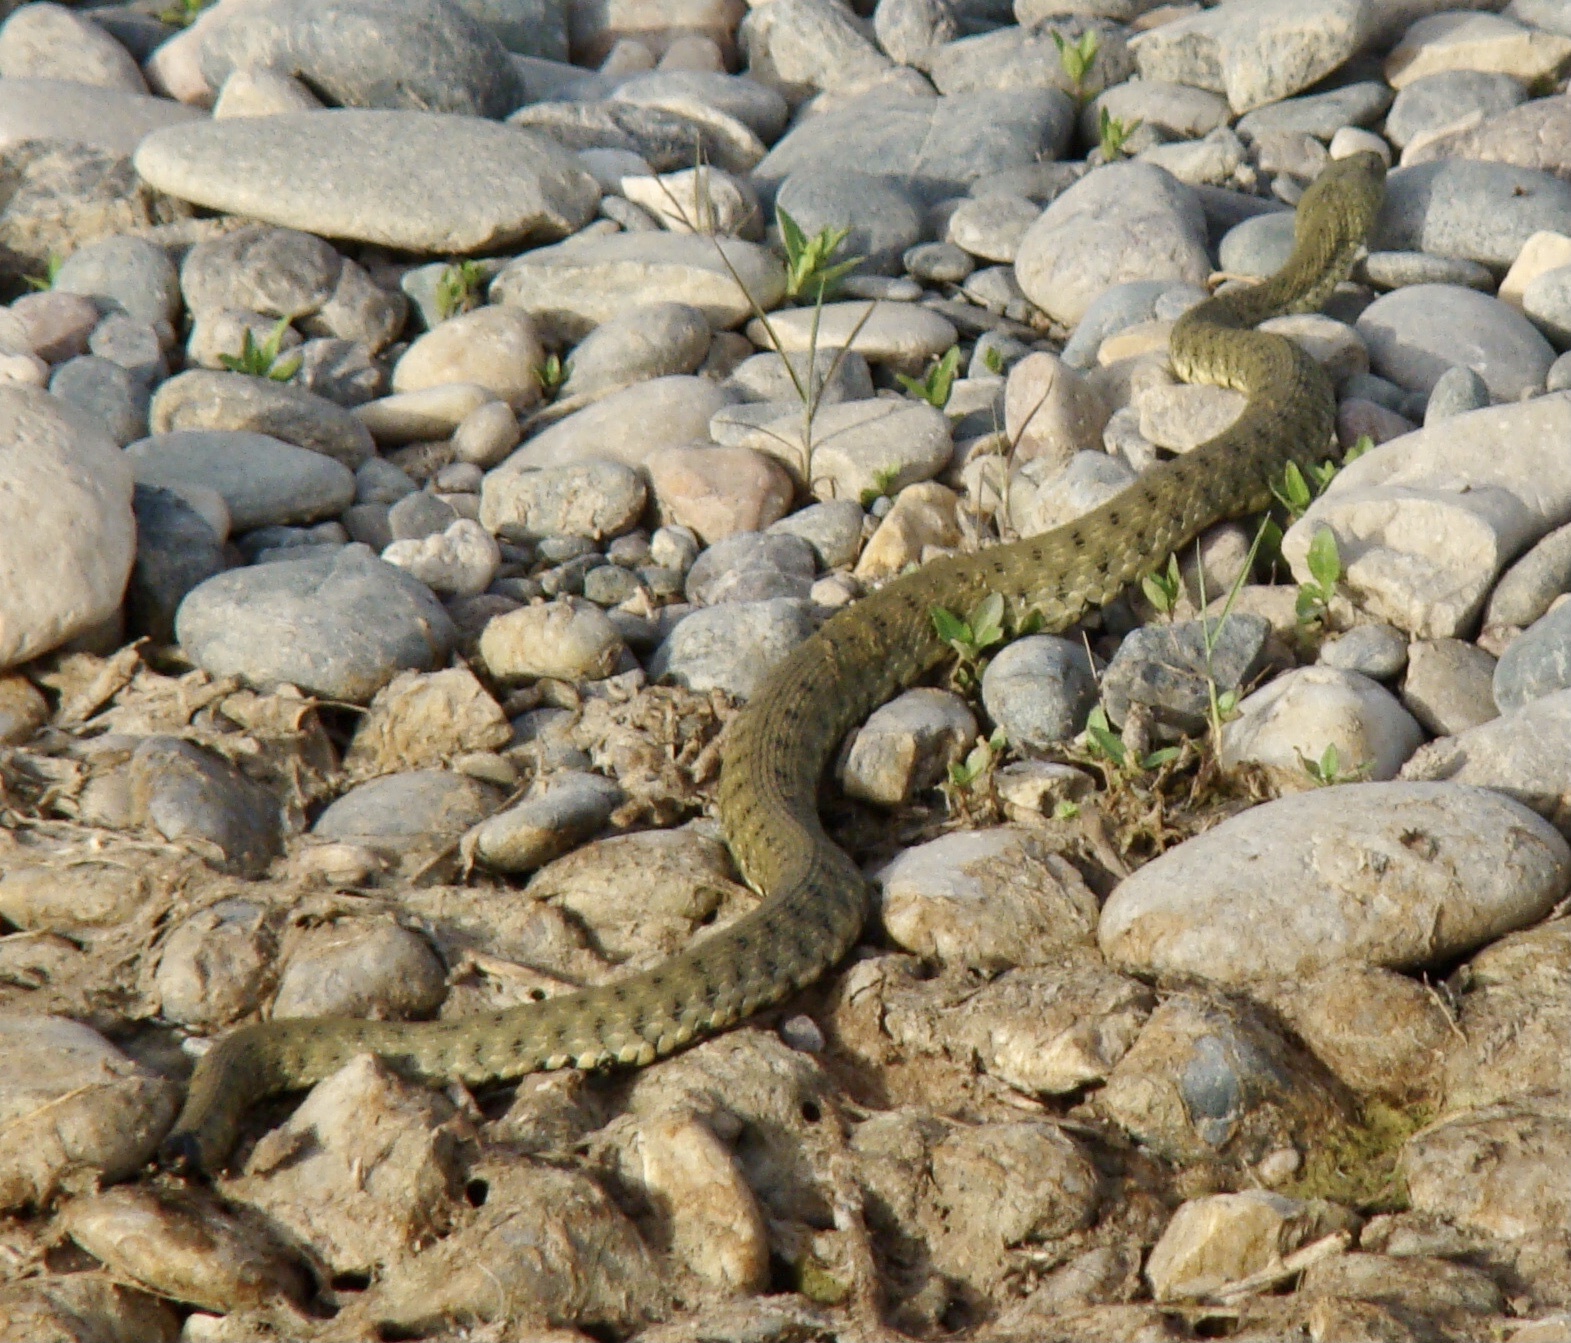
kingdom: Animalia
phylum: Chordata
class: Squamata
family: Colubridae
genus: Natrix
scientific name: Natrix tessellata
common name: Dice snake
